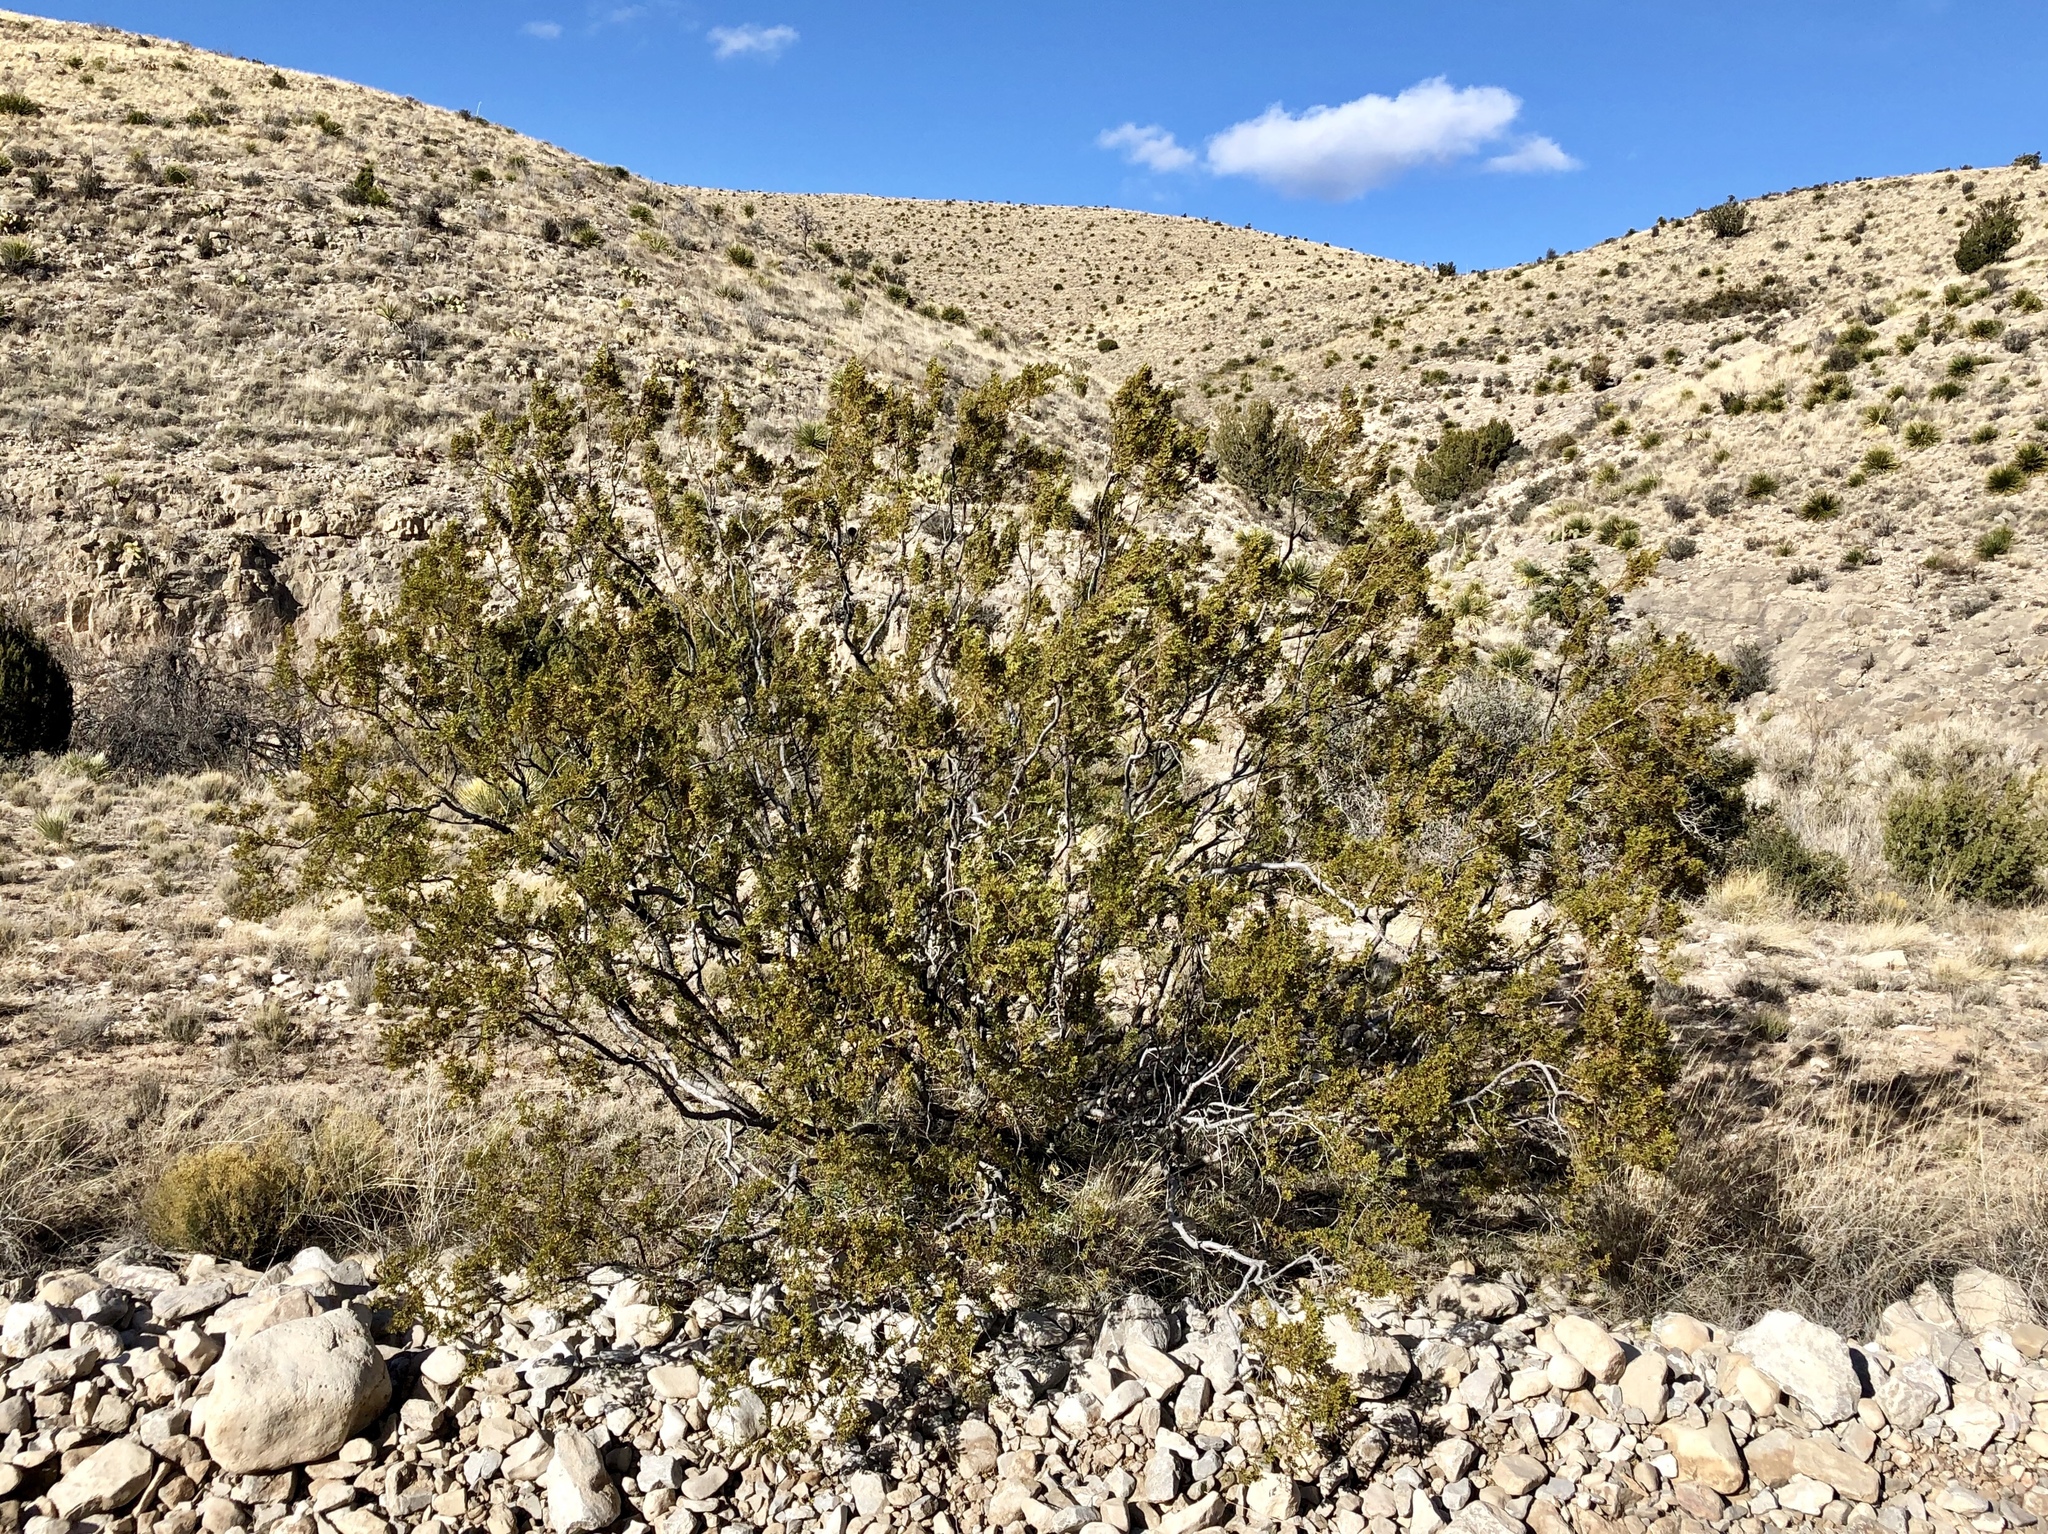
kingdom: Plantae
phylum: Tracheophyta
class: Magnoliopsida
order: Zygophyllales
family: Zygophyllaceae
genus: Larrea
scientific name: Larrea tridentata
